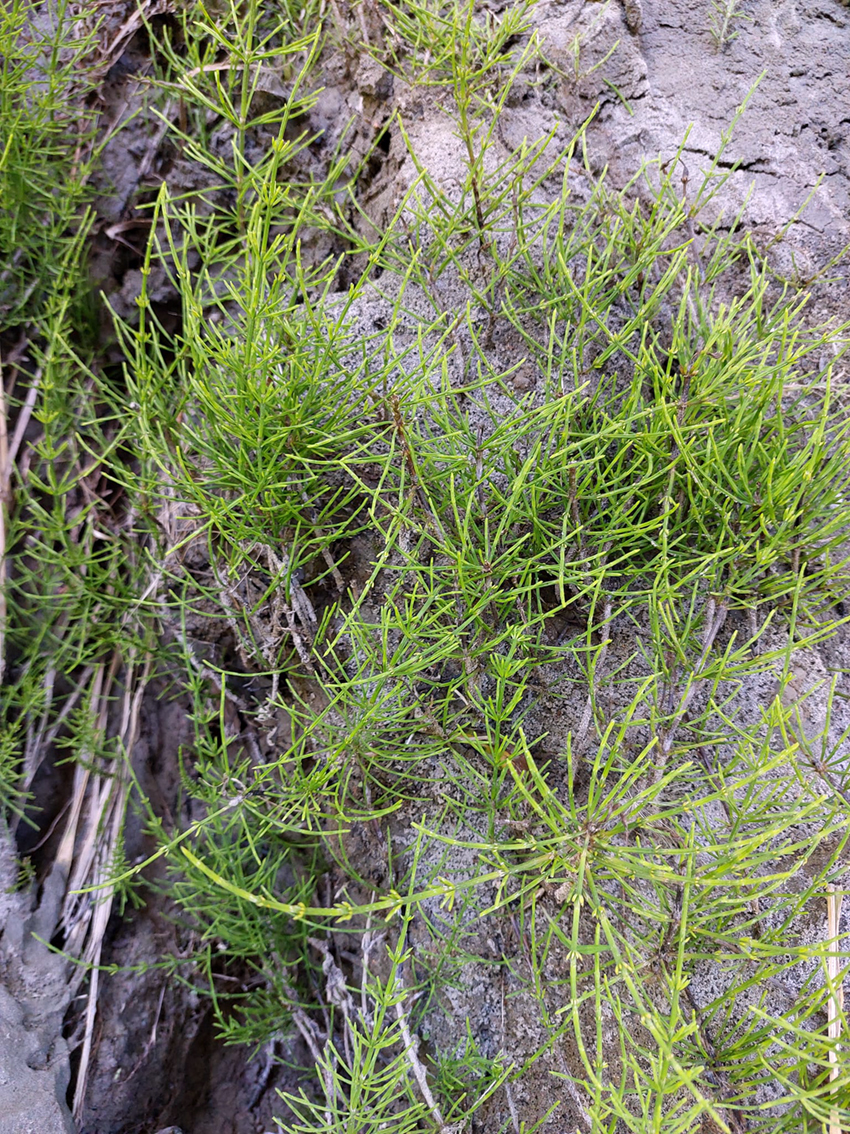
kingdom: Plantae
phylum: Tracheophyta
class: Polypodiopsida
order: Equisetales
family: Equisetaceae
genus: Equisetum
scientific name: Equisetum arvense
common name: Field horsetail
